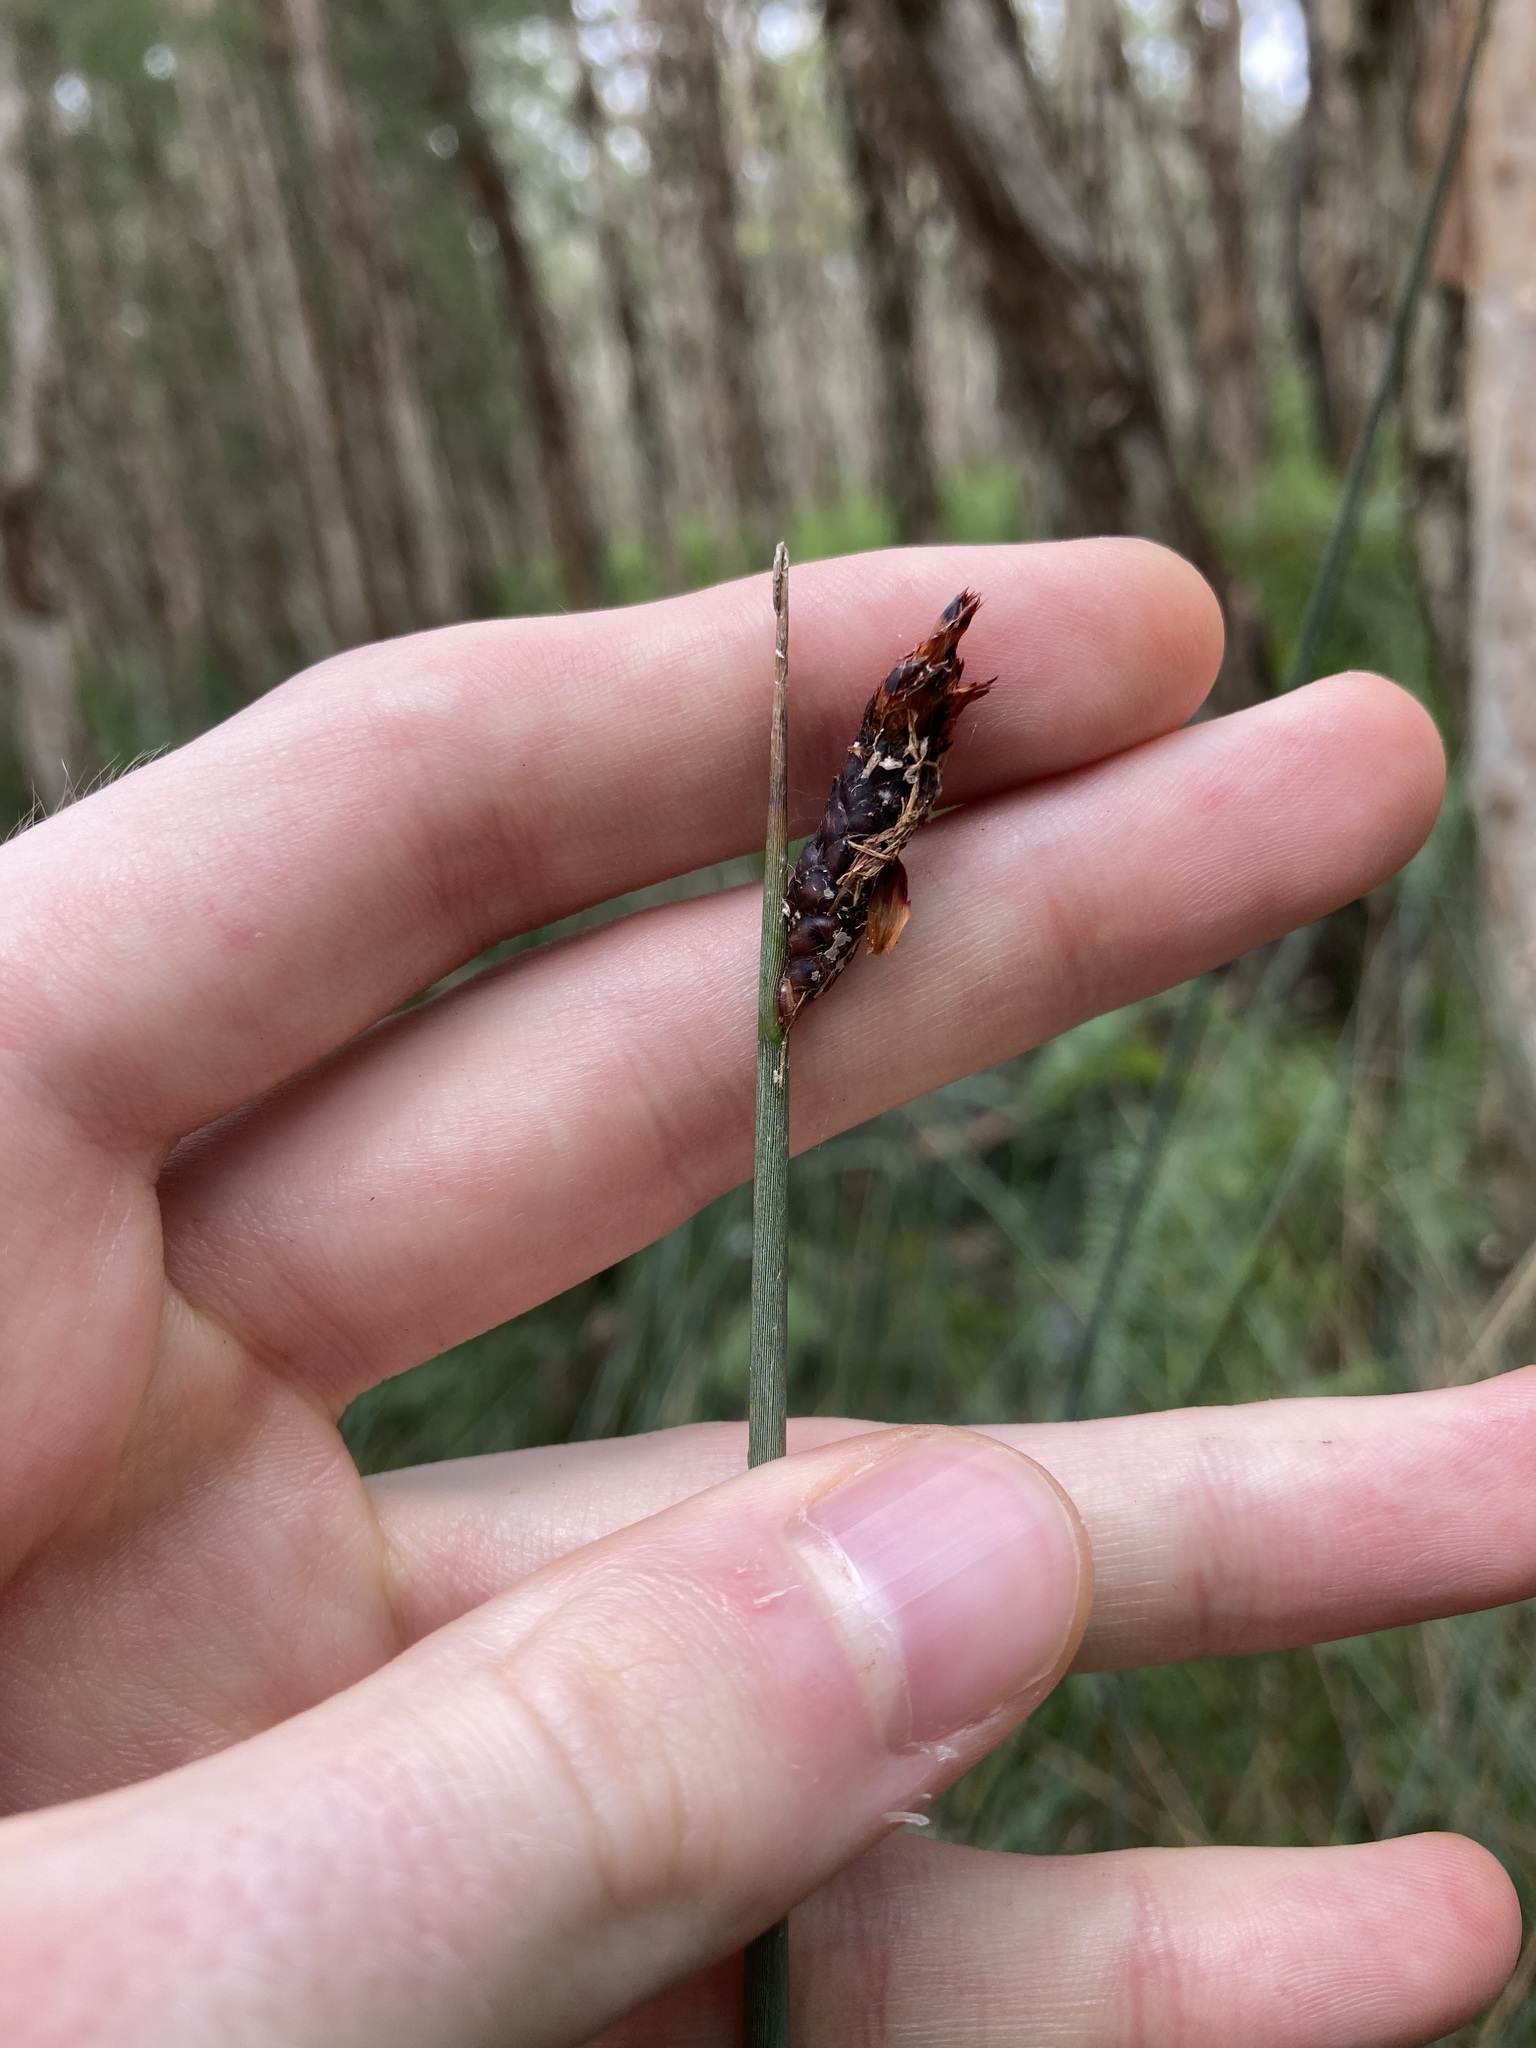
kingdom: Plantae
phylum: Tracheophyta
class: Liliopsida
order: Poales
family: Cyperaceae
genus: Lepironia
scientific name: Lepironia articulata
